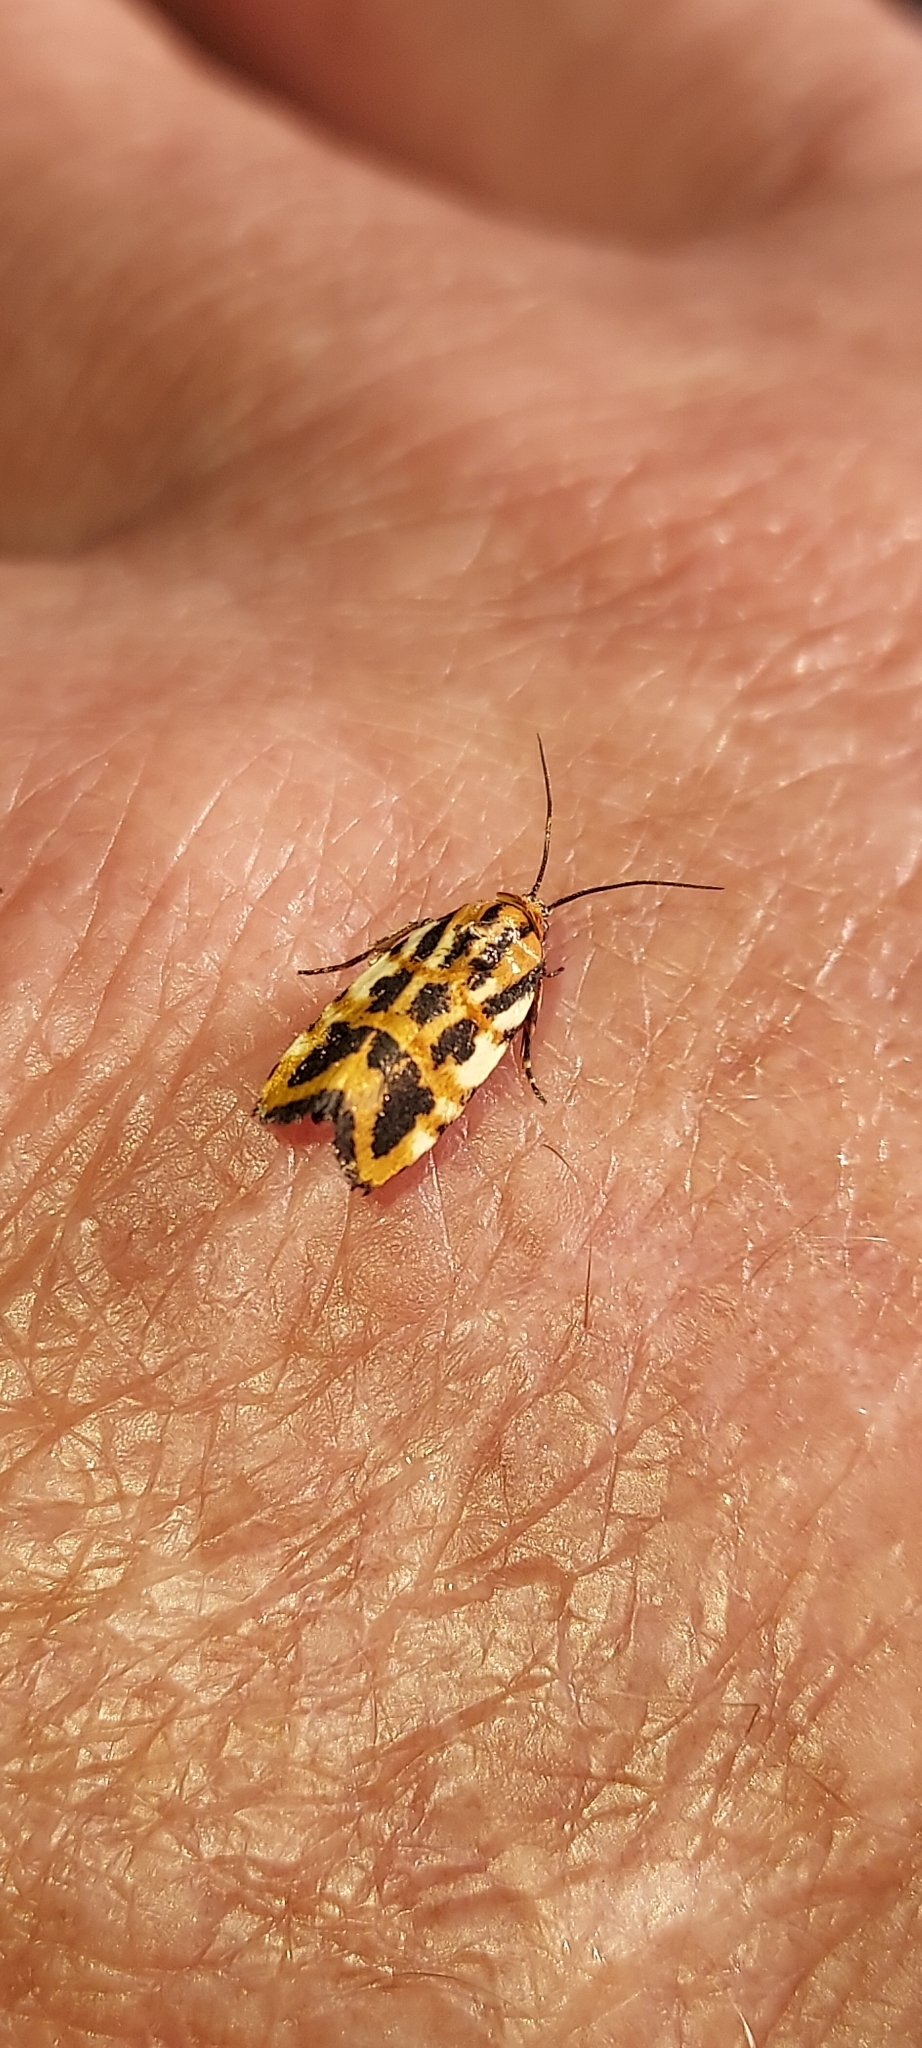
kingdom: Animalia
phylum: Arthropoda
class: Insecta
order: Lepidoptera
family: Noctuidae
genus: Acontia
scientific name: Acontia leo
